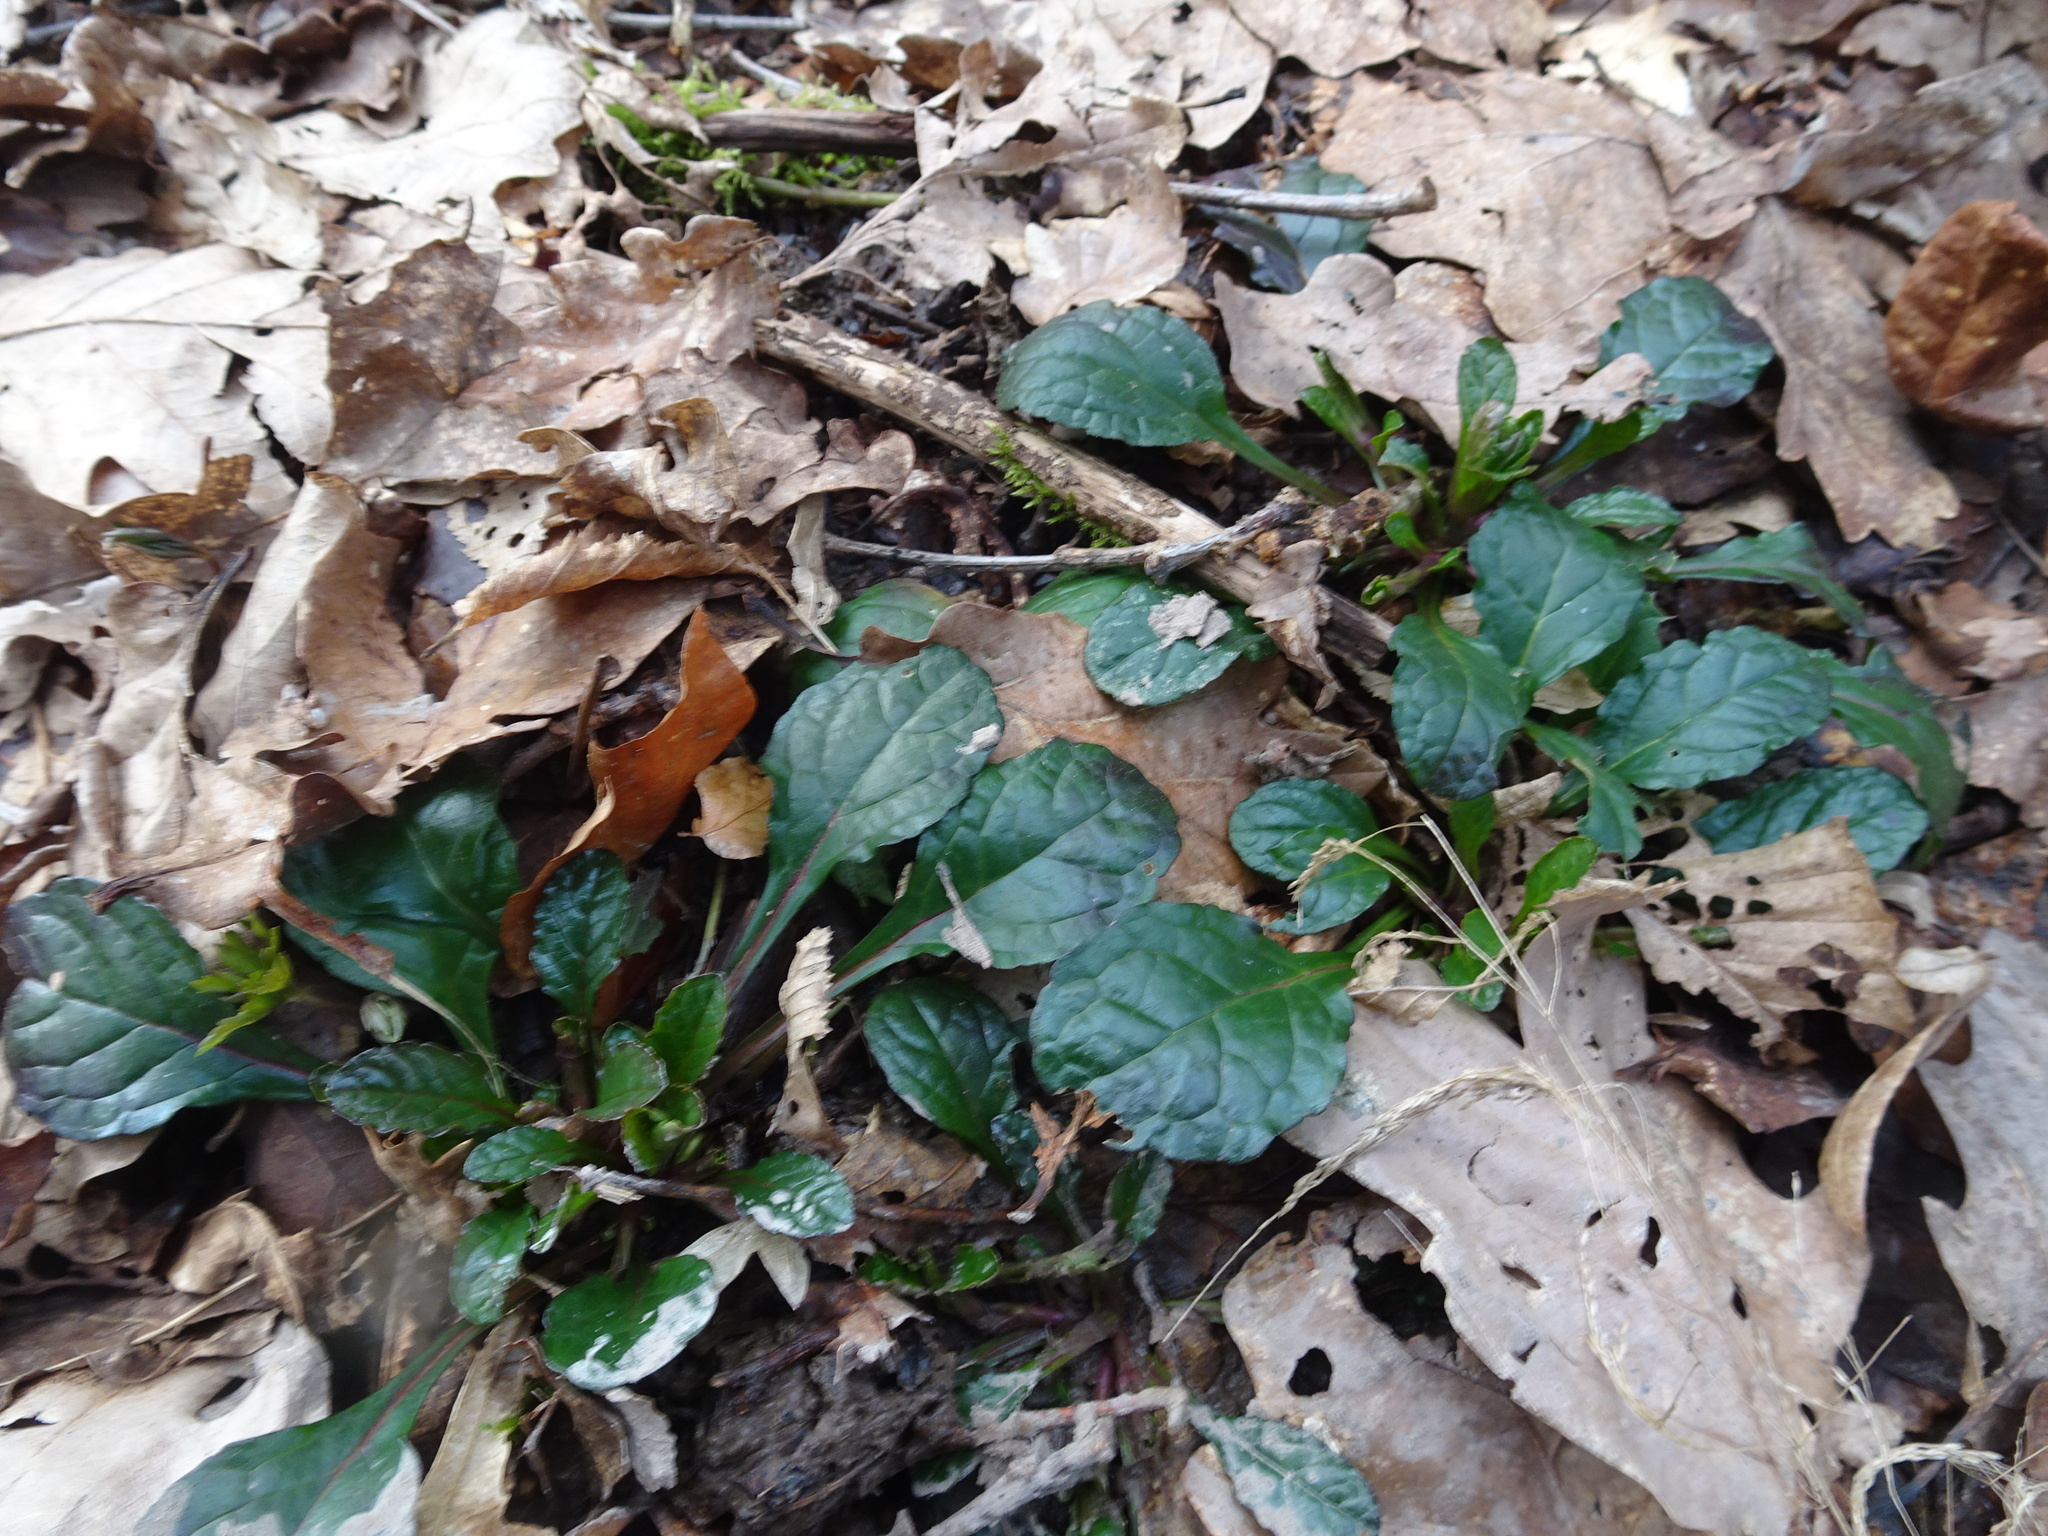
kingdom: Plantae
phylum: Tracheophyta
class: Magnoliopsida
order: Lamiales
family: Lamiaceae
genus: Ajuga
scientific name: Ajuga reptans
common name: Bugle
